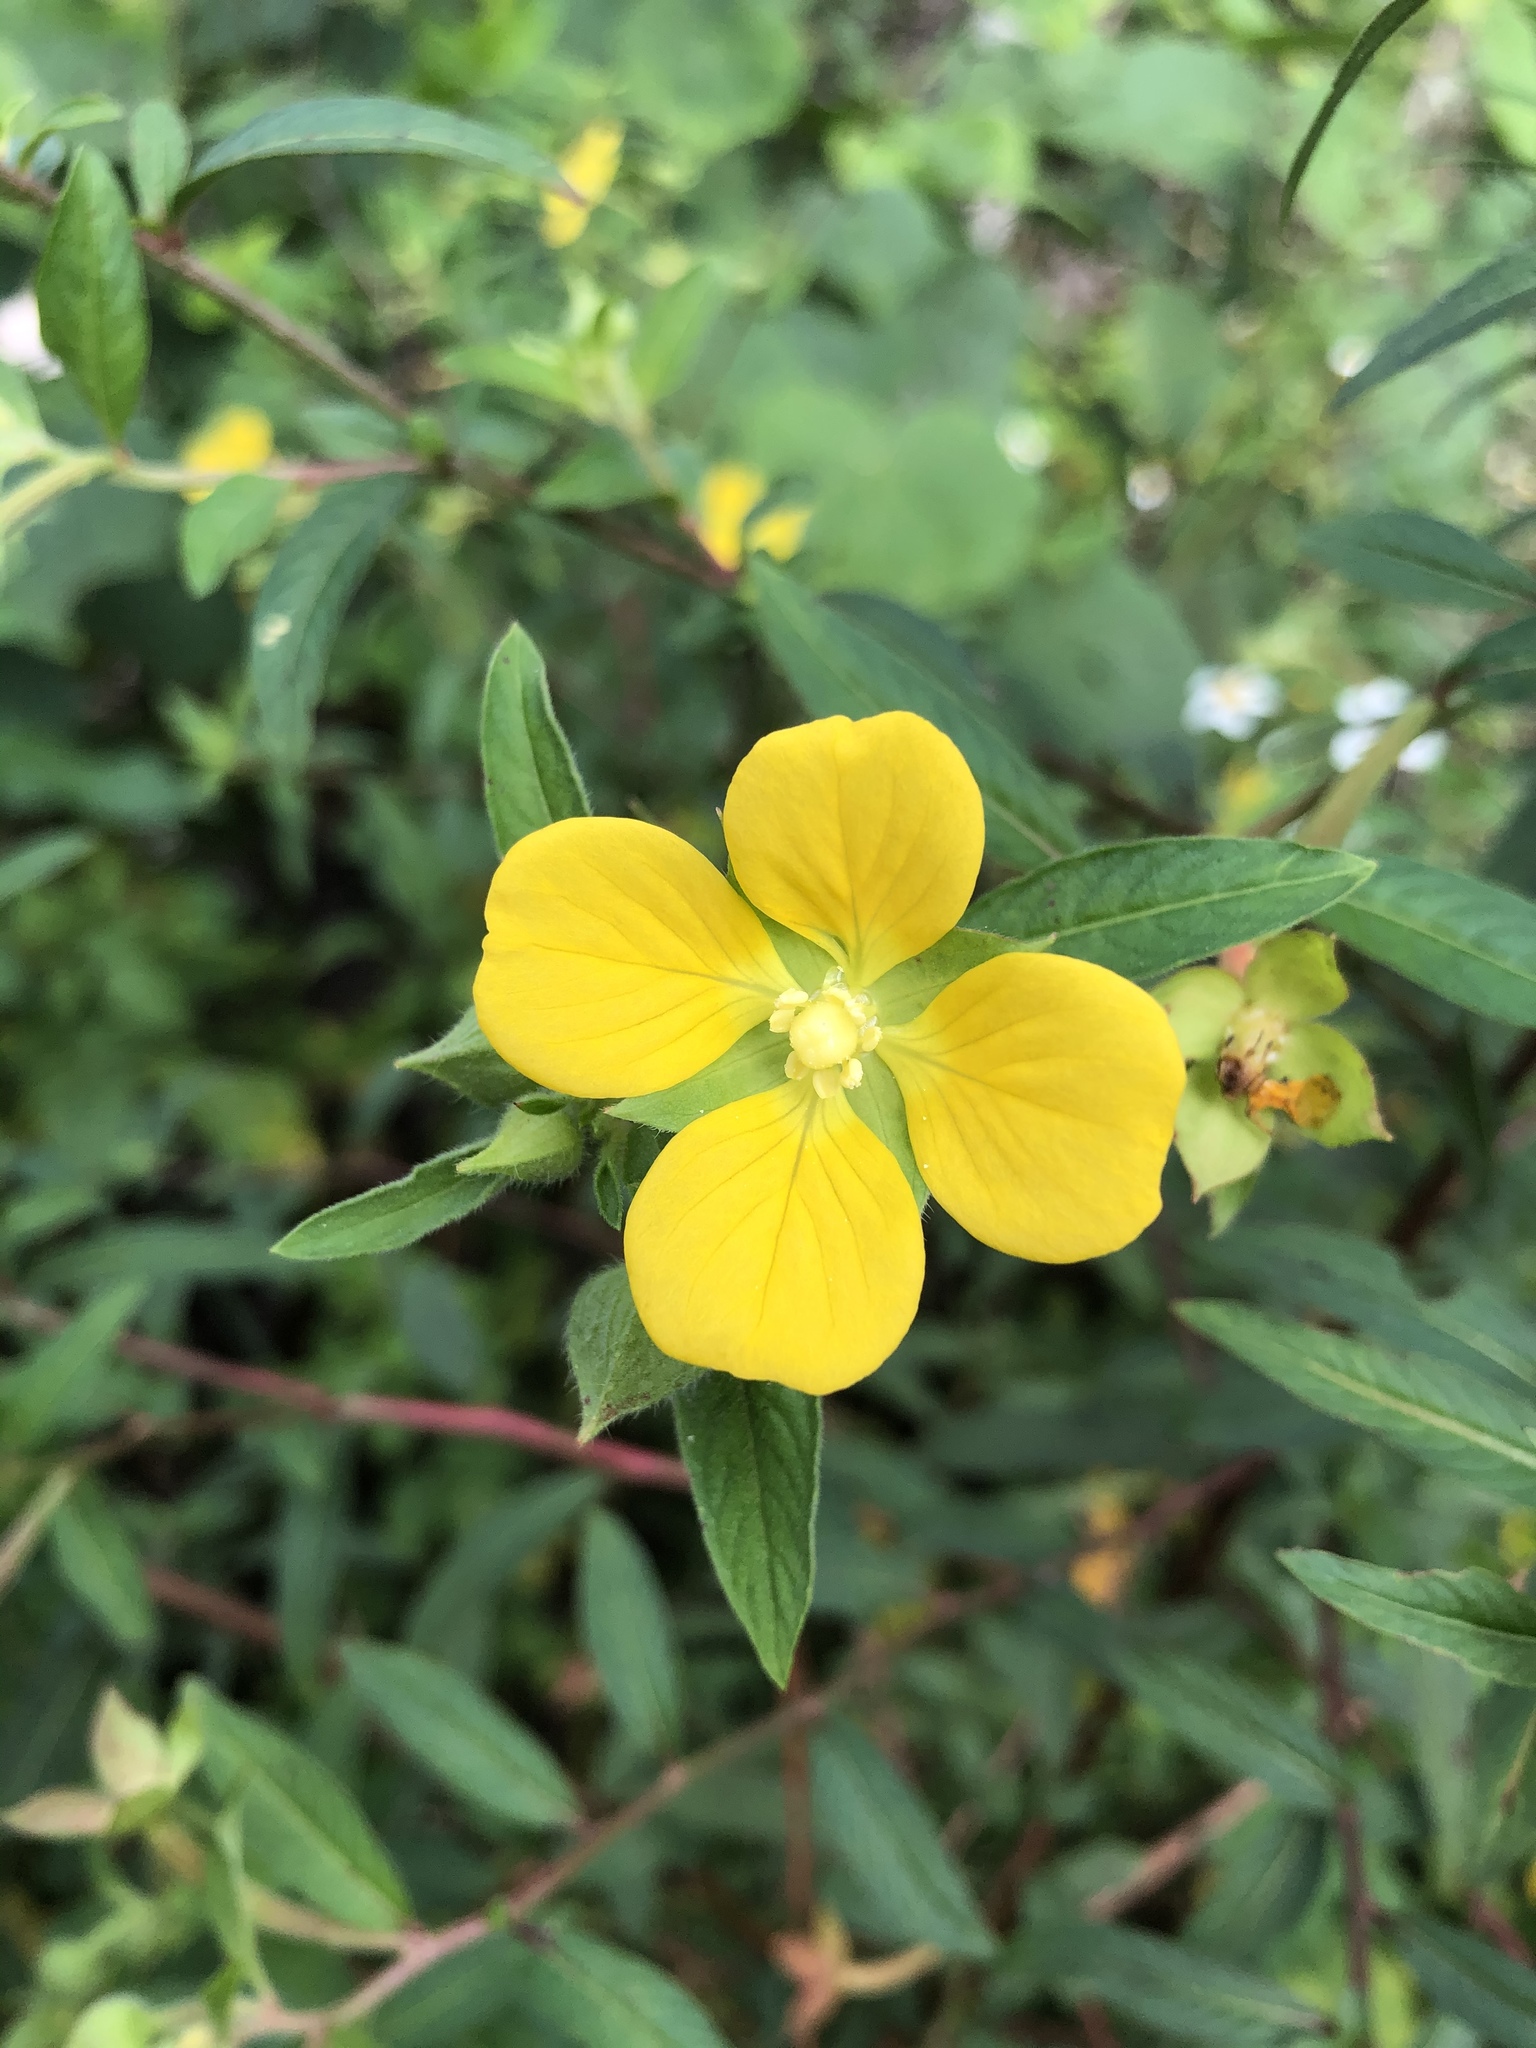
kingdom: Plantae
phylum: Tracheophyta
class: Magnoliopsida
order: Myrtales
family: Onagraceae
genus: Ludwigia
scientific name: Ludwigia octovalvis
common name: Water-primrose
